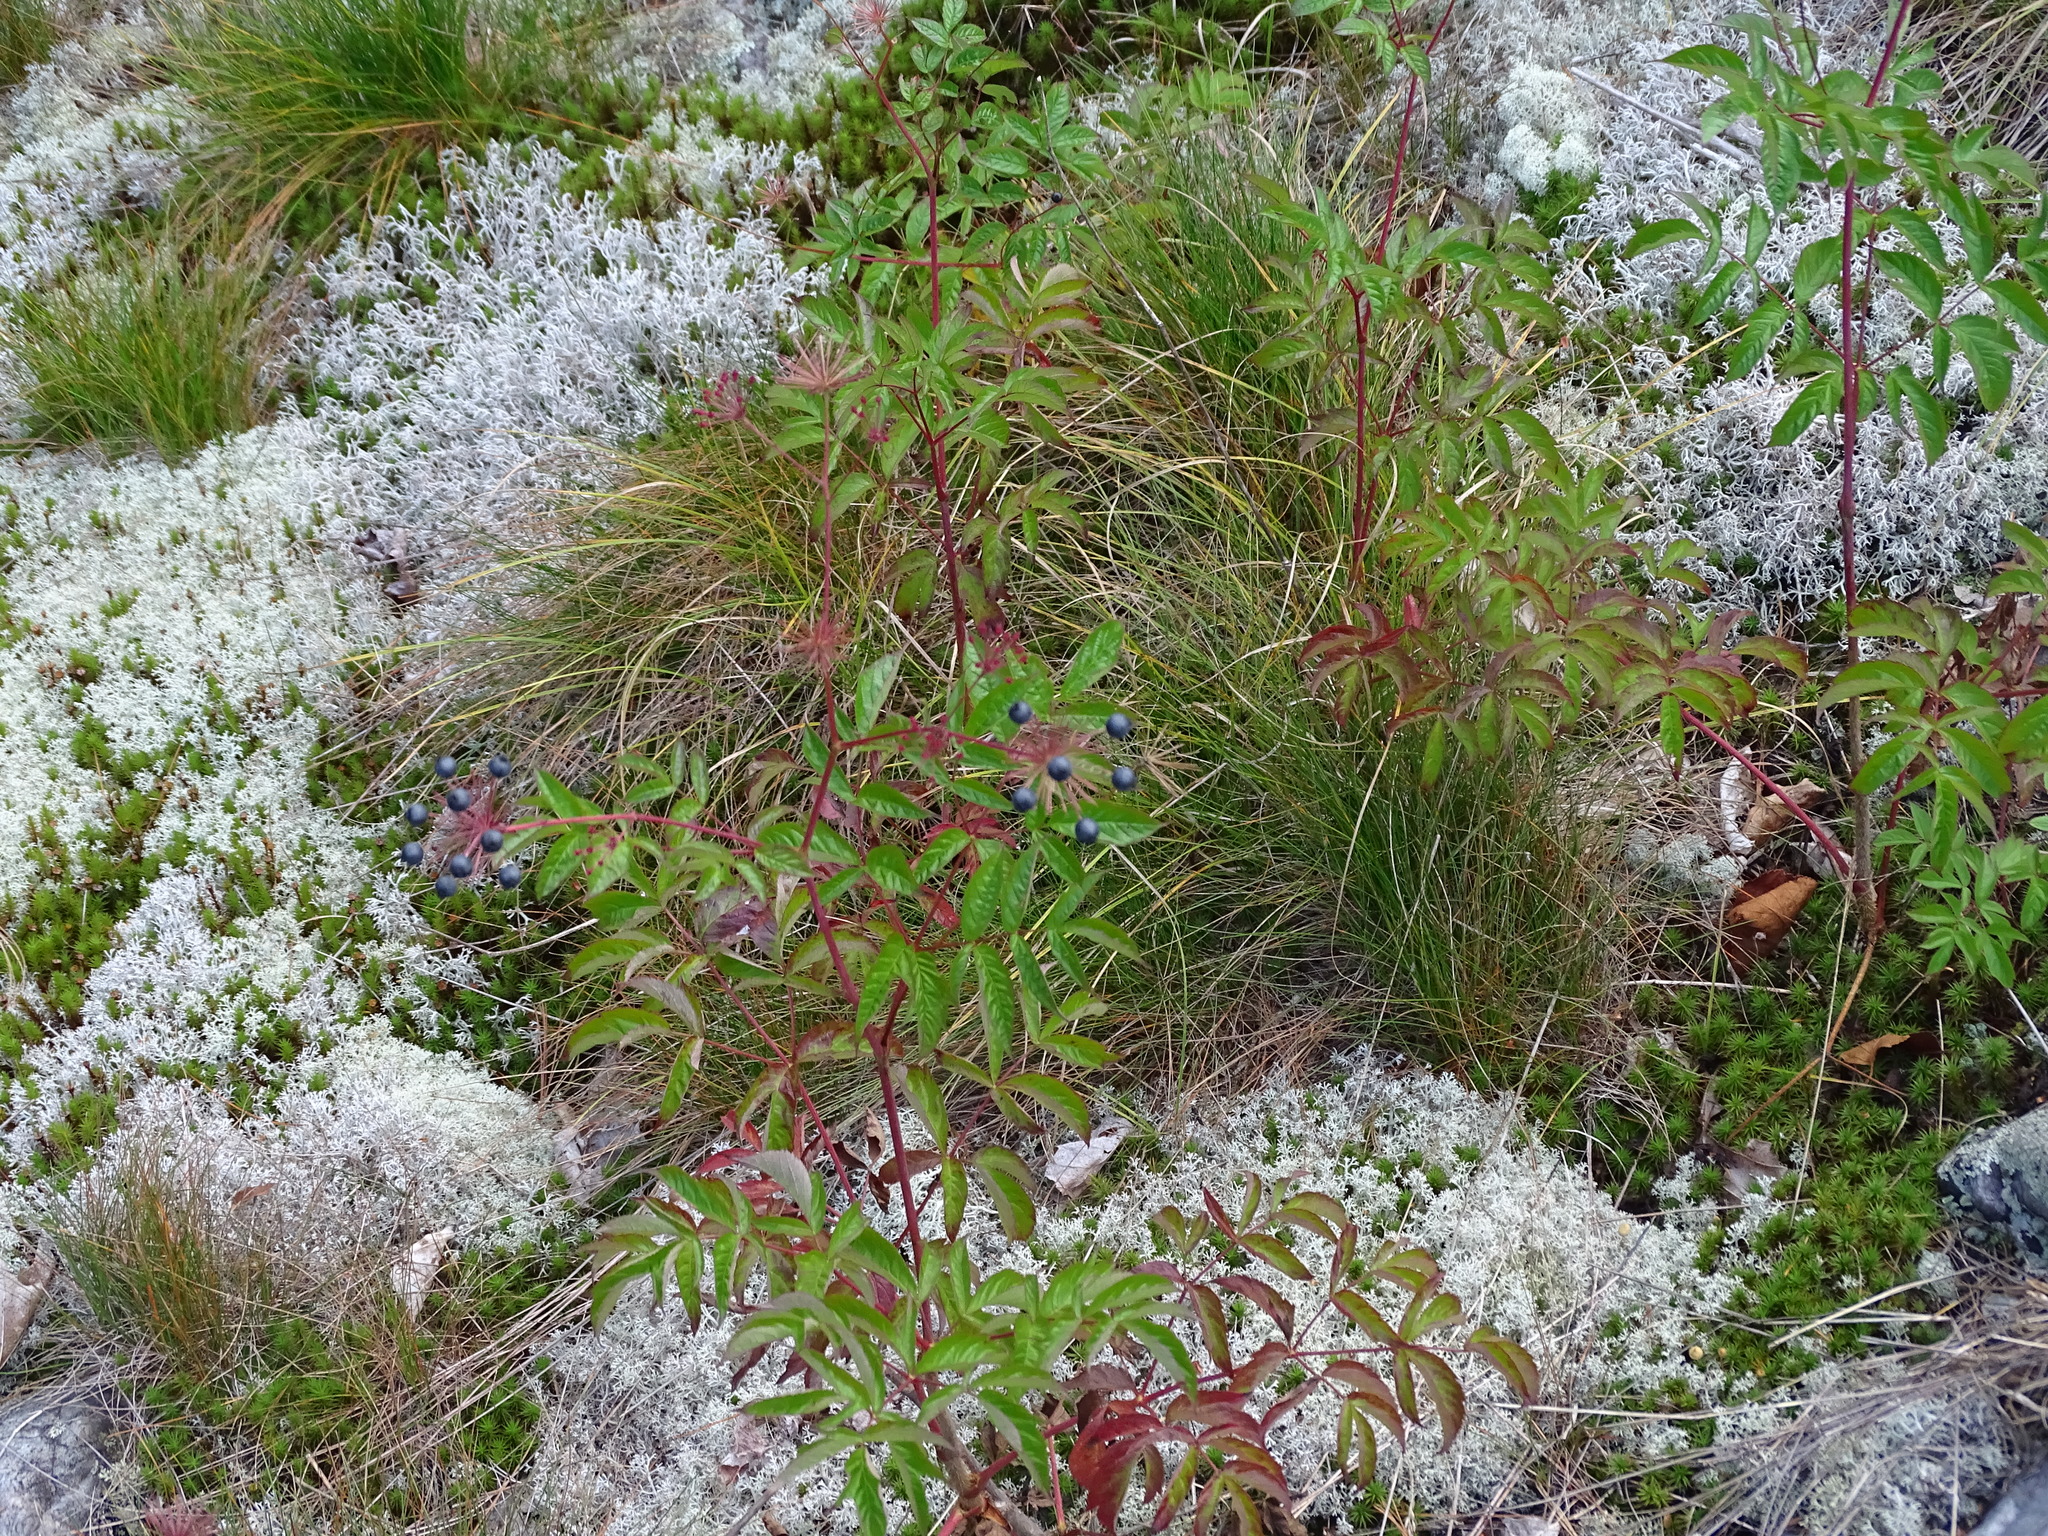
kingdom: Plantae
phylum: Tracheophyta
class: Magnoliopsida
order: Apiales
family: Araliaceae
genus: Aralia
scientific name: Aralia hispida
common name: Bristly sarsaparilla
